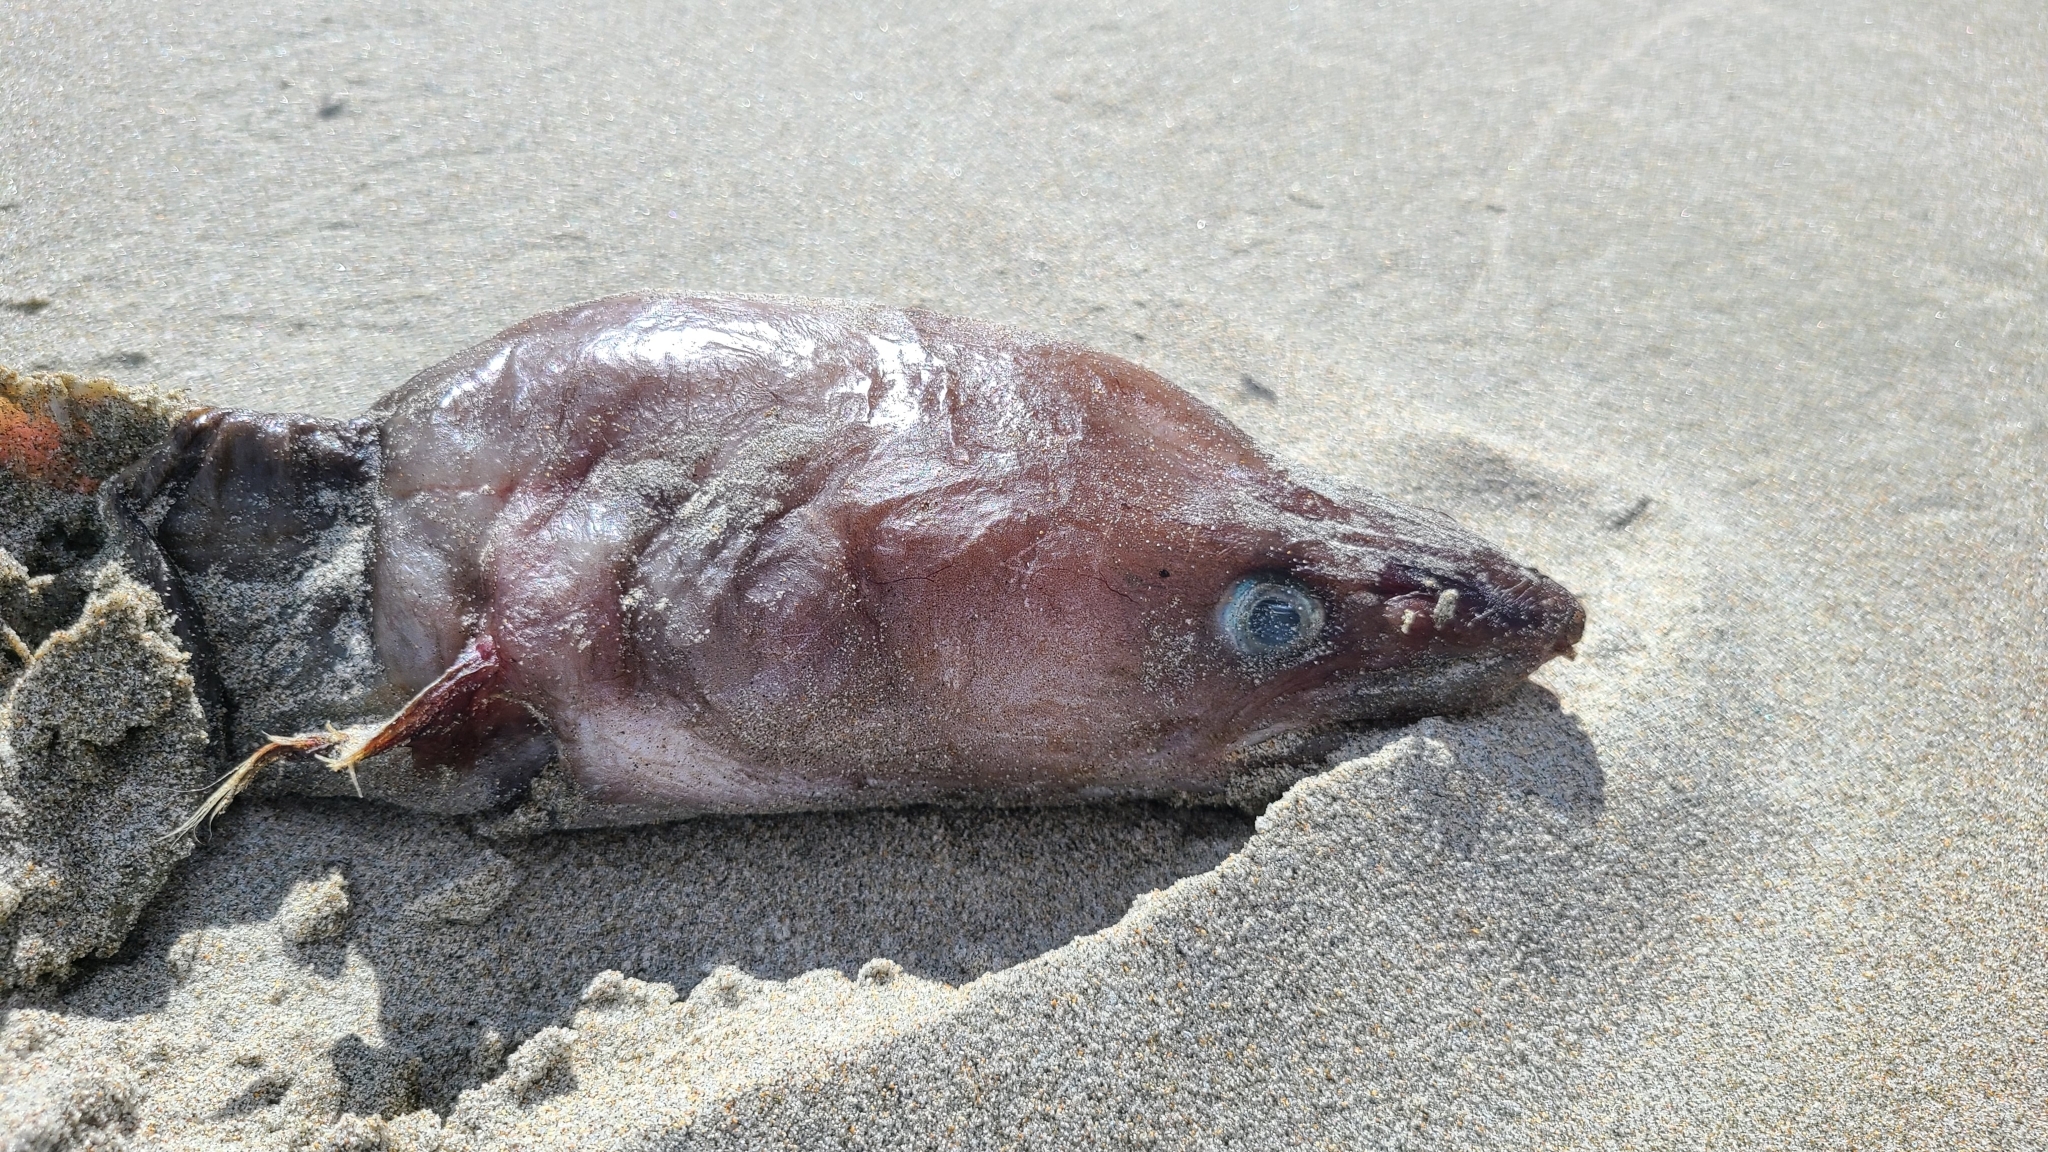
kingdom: Animalia
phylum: Chordata
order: Anguilliformes
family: Congridae
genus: Conger
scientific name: Conger verreauxi
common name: Conger eel
